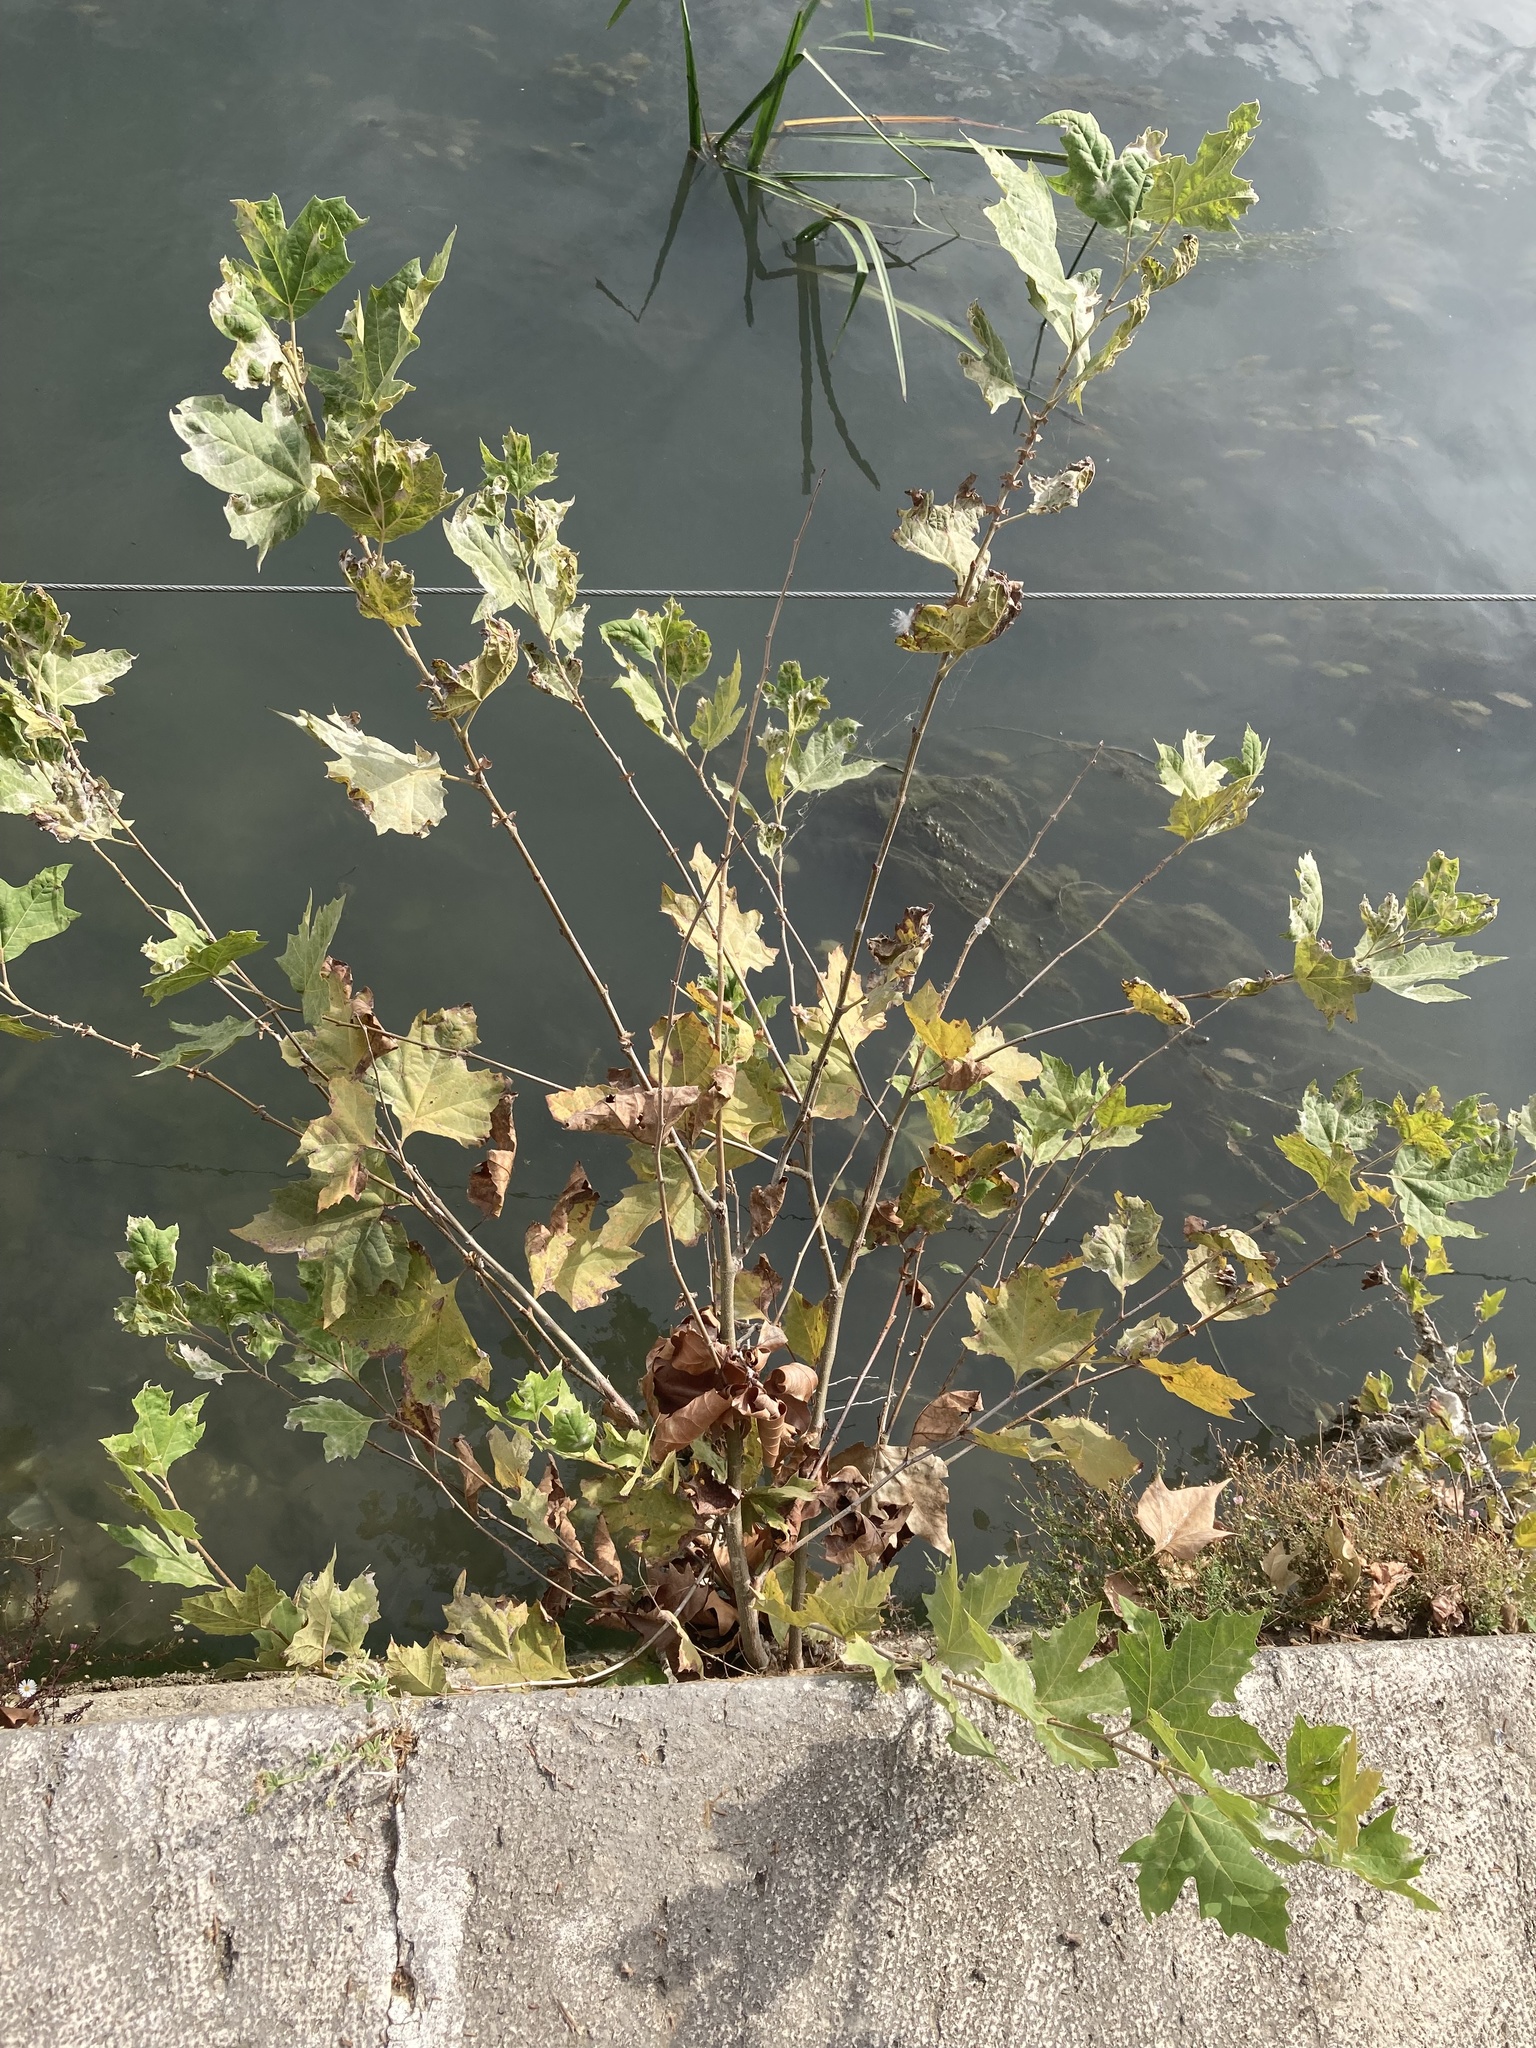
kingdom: Plantae
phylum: Tracheophyta
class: Magnoliopsida
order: Proteales
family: Platanaceae
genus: Platanus
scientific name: Platanus hispanica
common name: London plane
